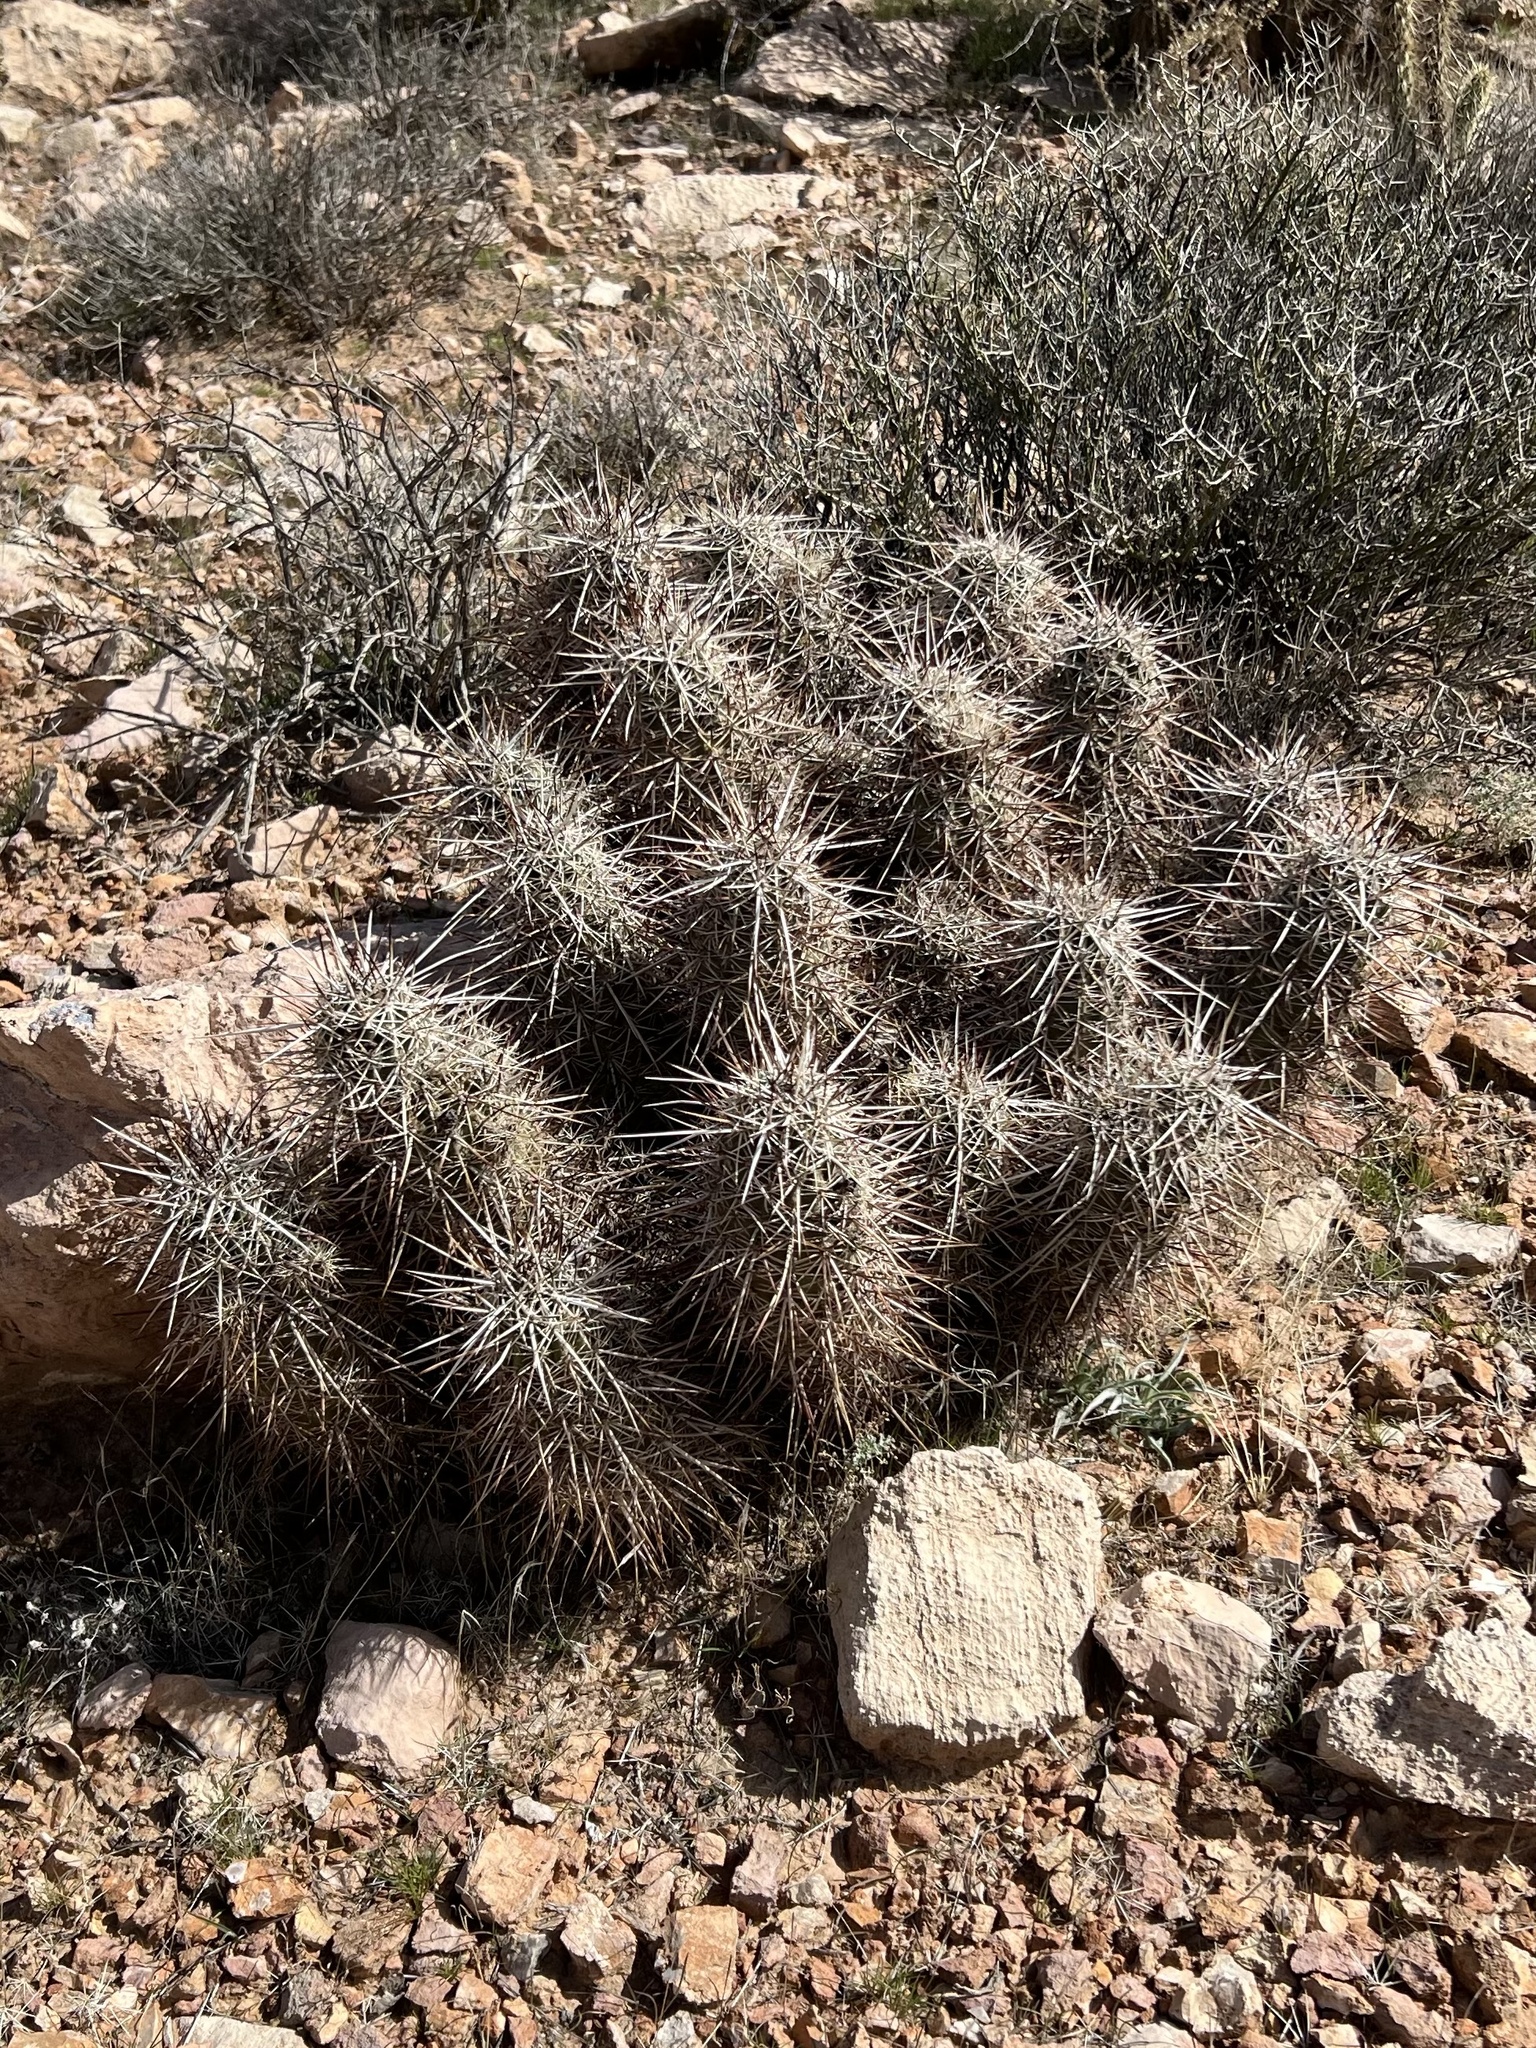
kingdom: Plantae
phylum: Tracheophyta
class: Magnoliopsida
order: Caryophyllales
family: Cactaceae
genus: Echinocereus
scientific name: Echinocereus engelmannii
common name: Engelmann's hedgehog cactus
